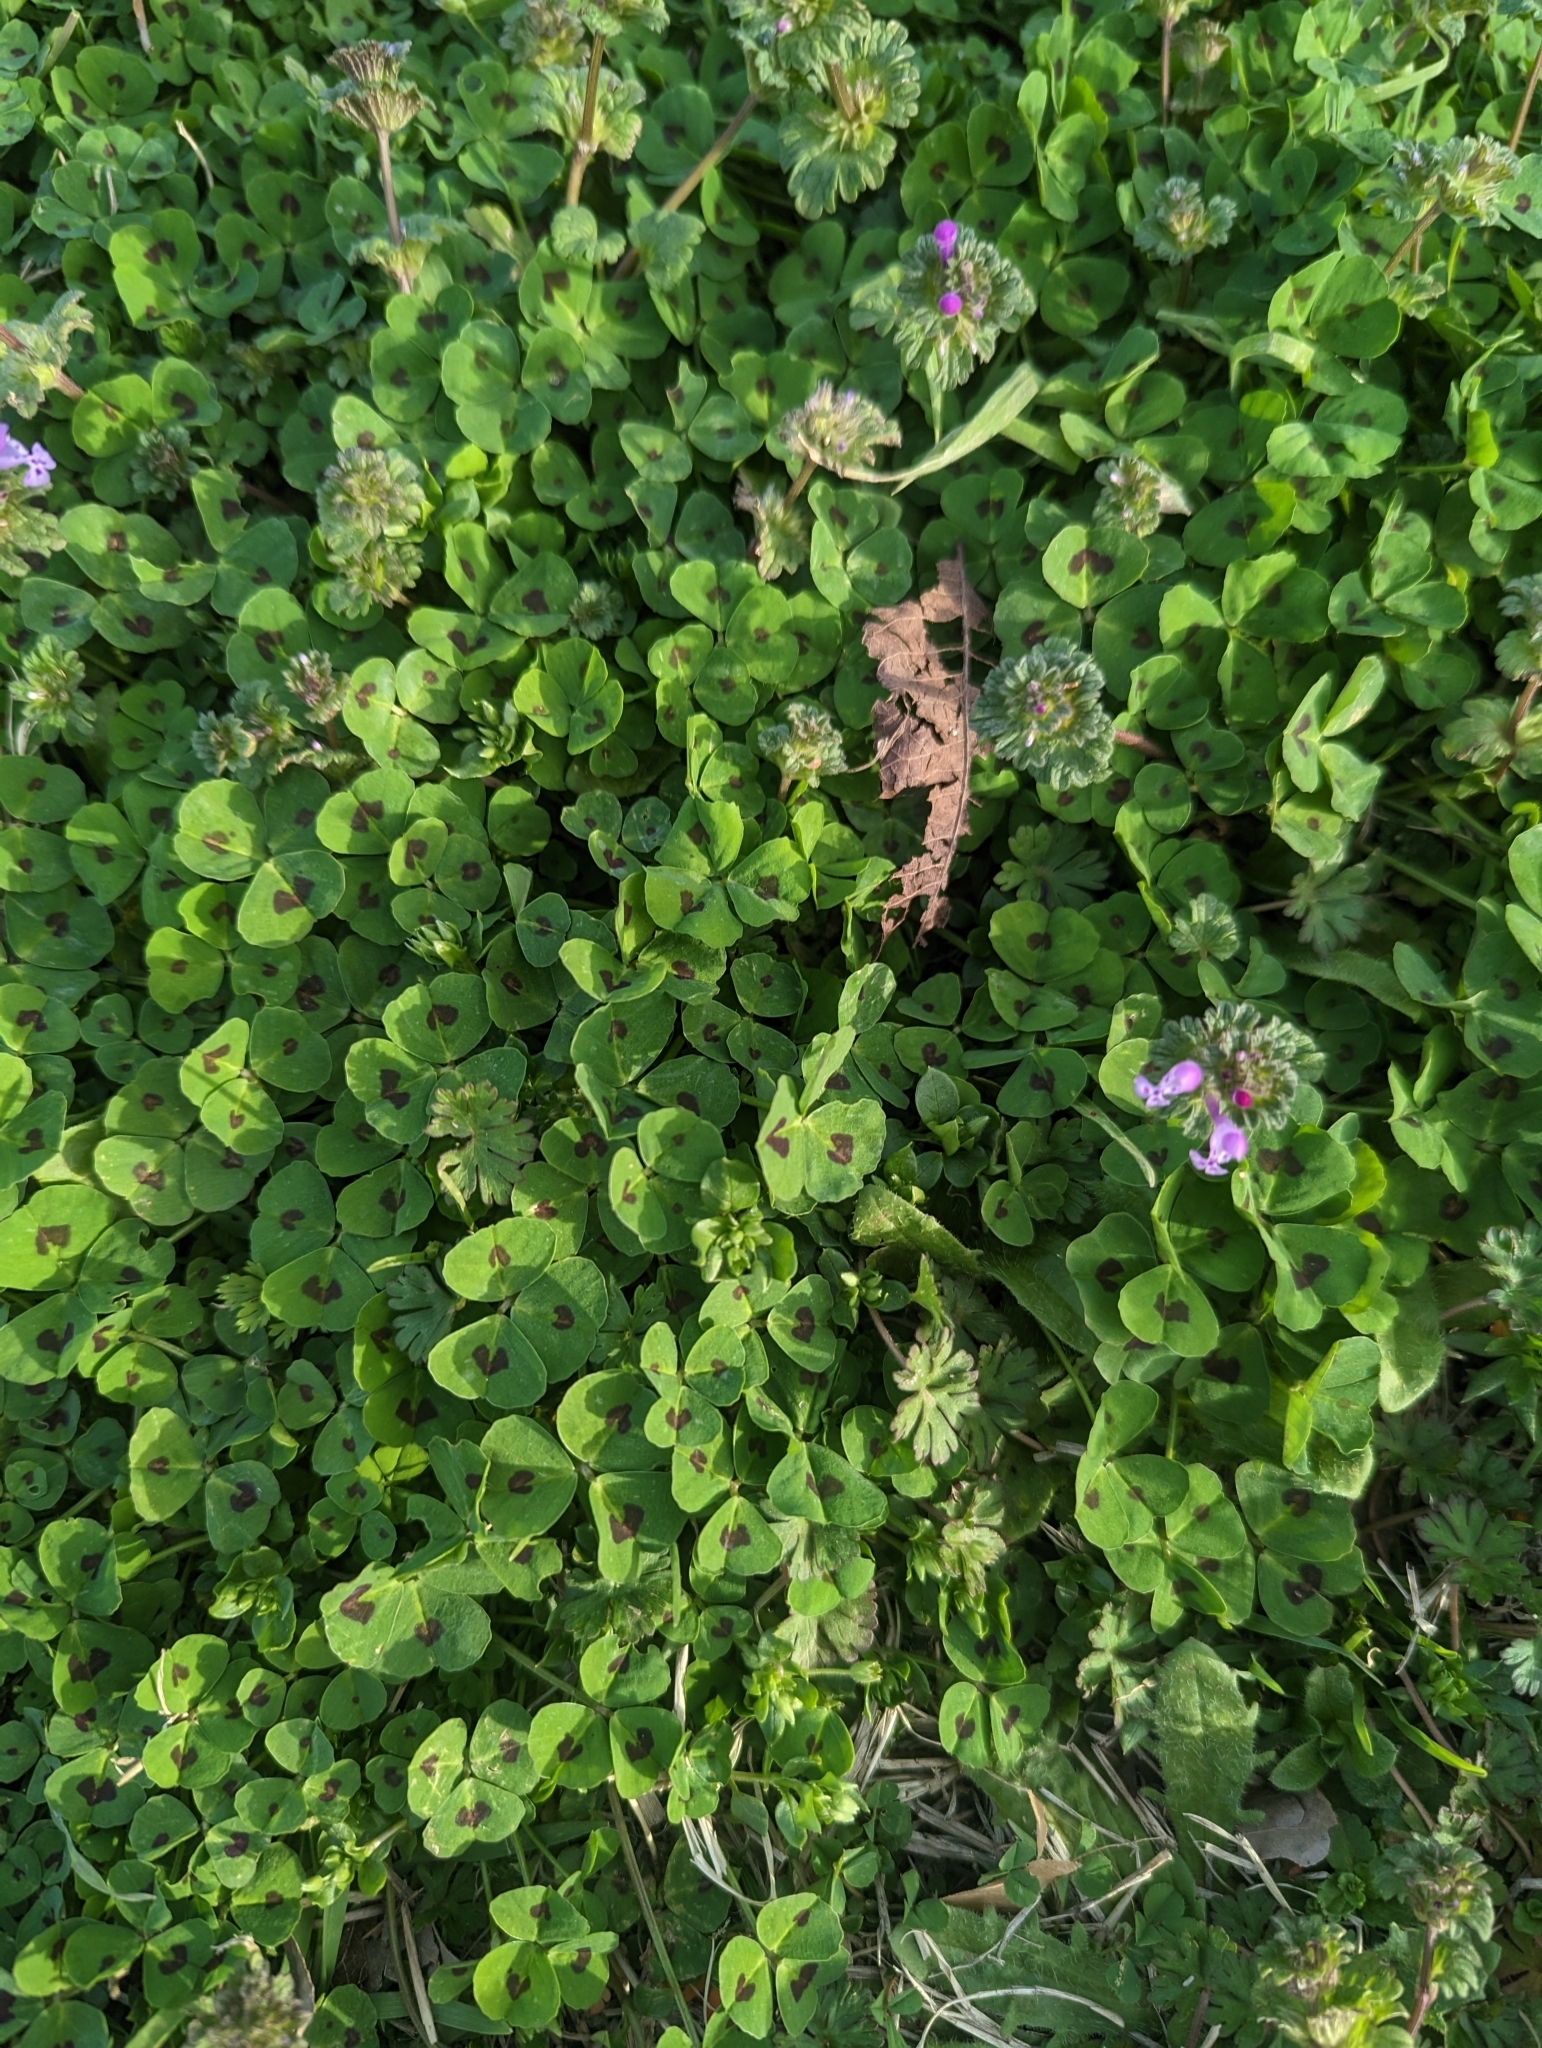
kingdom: Plantae
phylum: Tracheophyta
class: Magnoliopsida
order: Fabales
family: Fabaceae
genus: Medicago
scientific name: Medicago arabica
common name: Spotted medick
